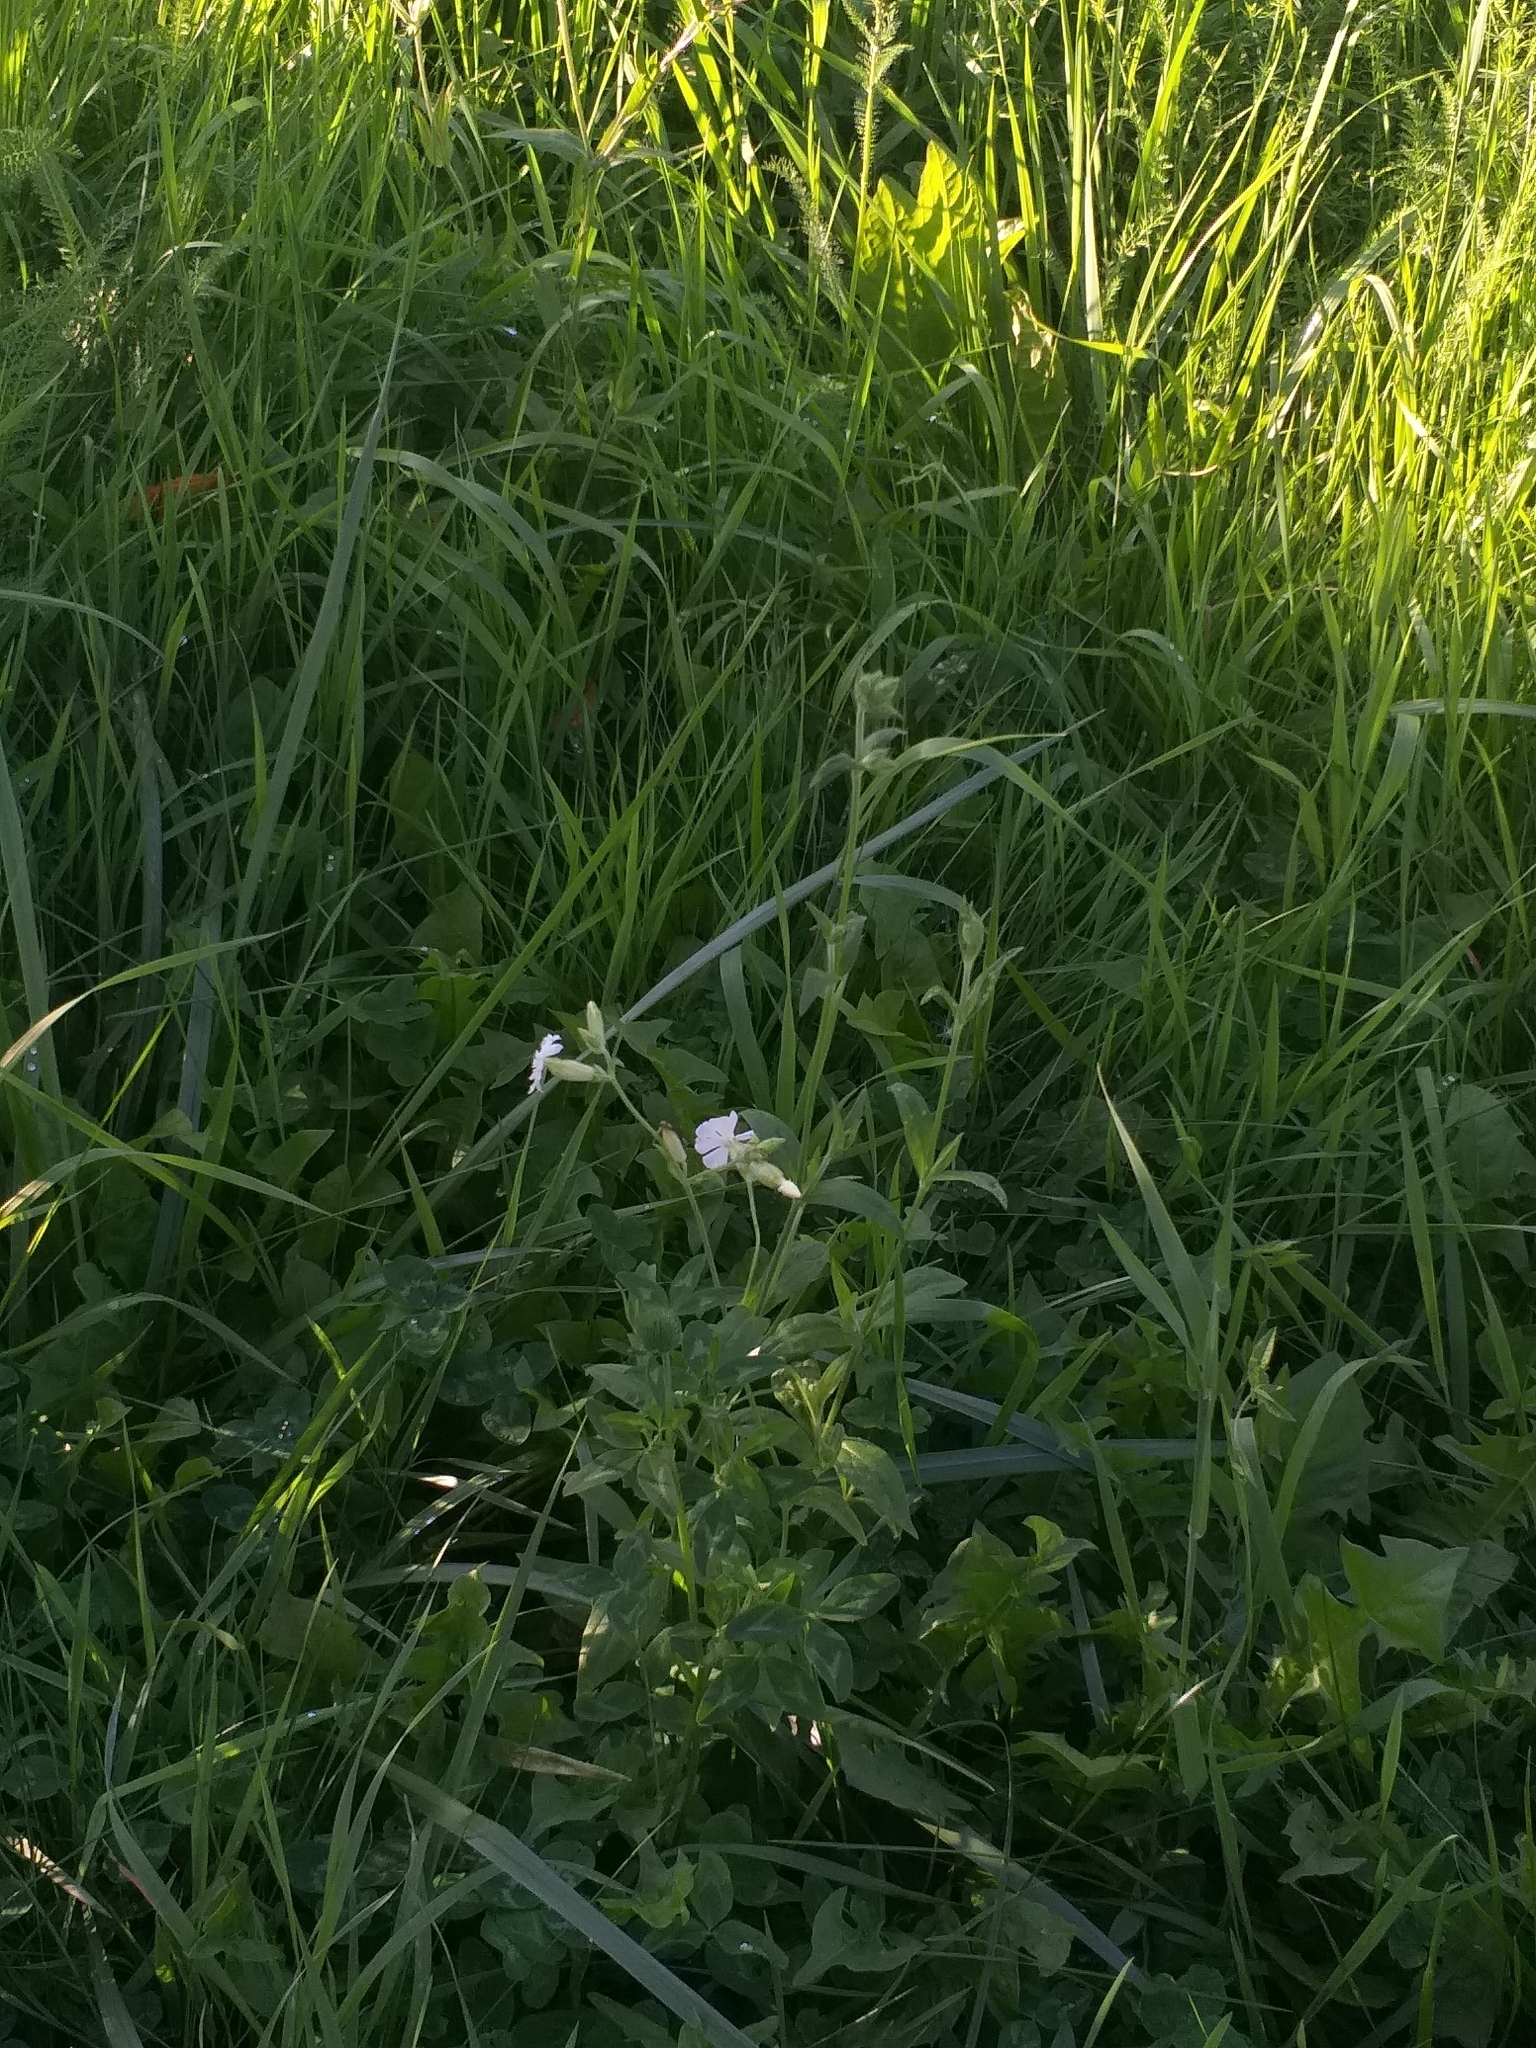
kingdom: Plantae
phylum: Tracheophyta
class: Magnoliopsida
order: Caryophyllales
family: Caryophyllaceae
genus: Silene
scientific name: Silene latifolia
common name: White campion
